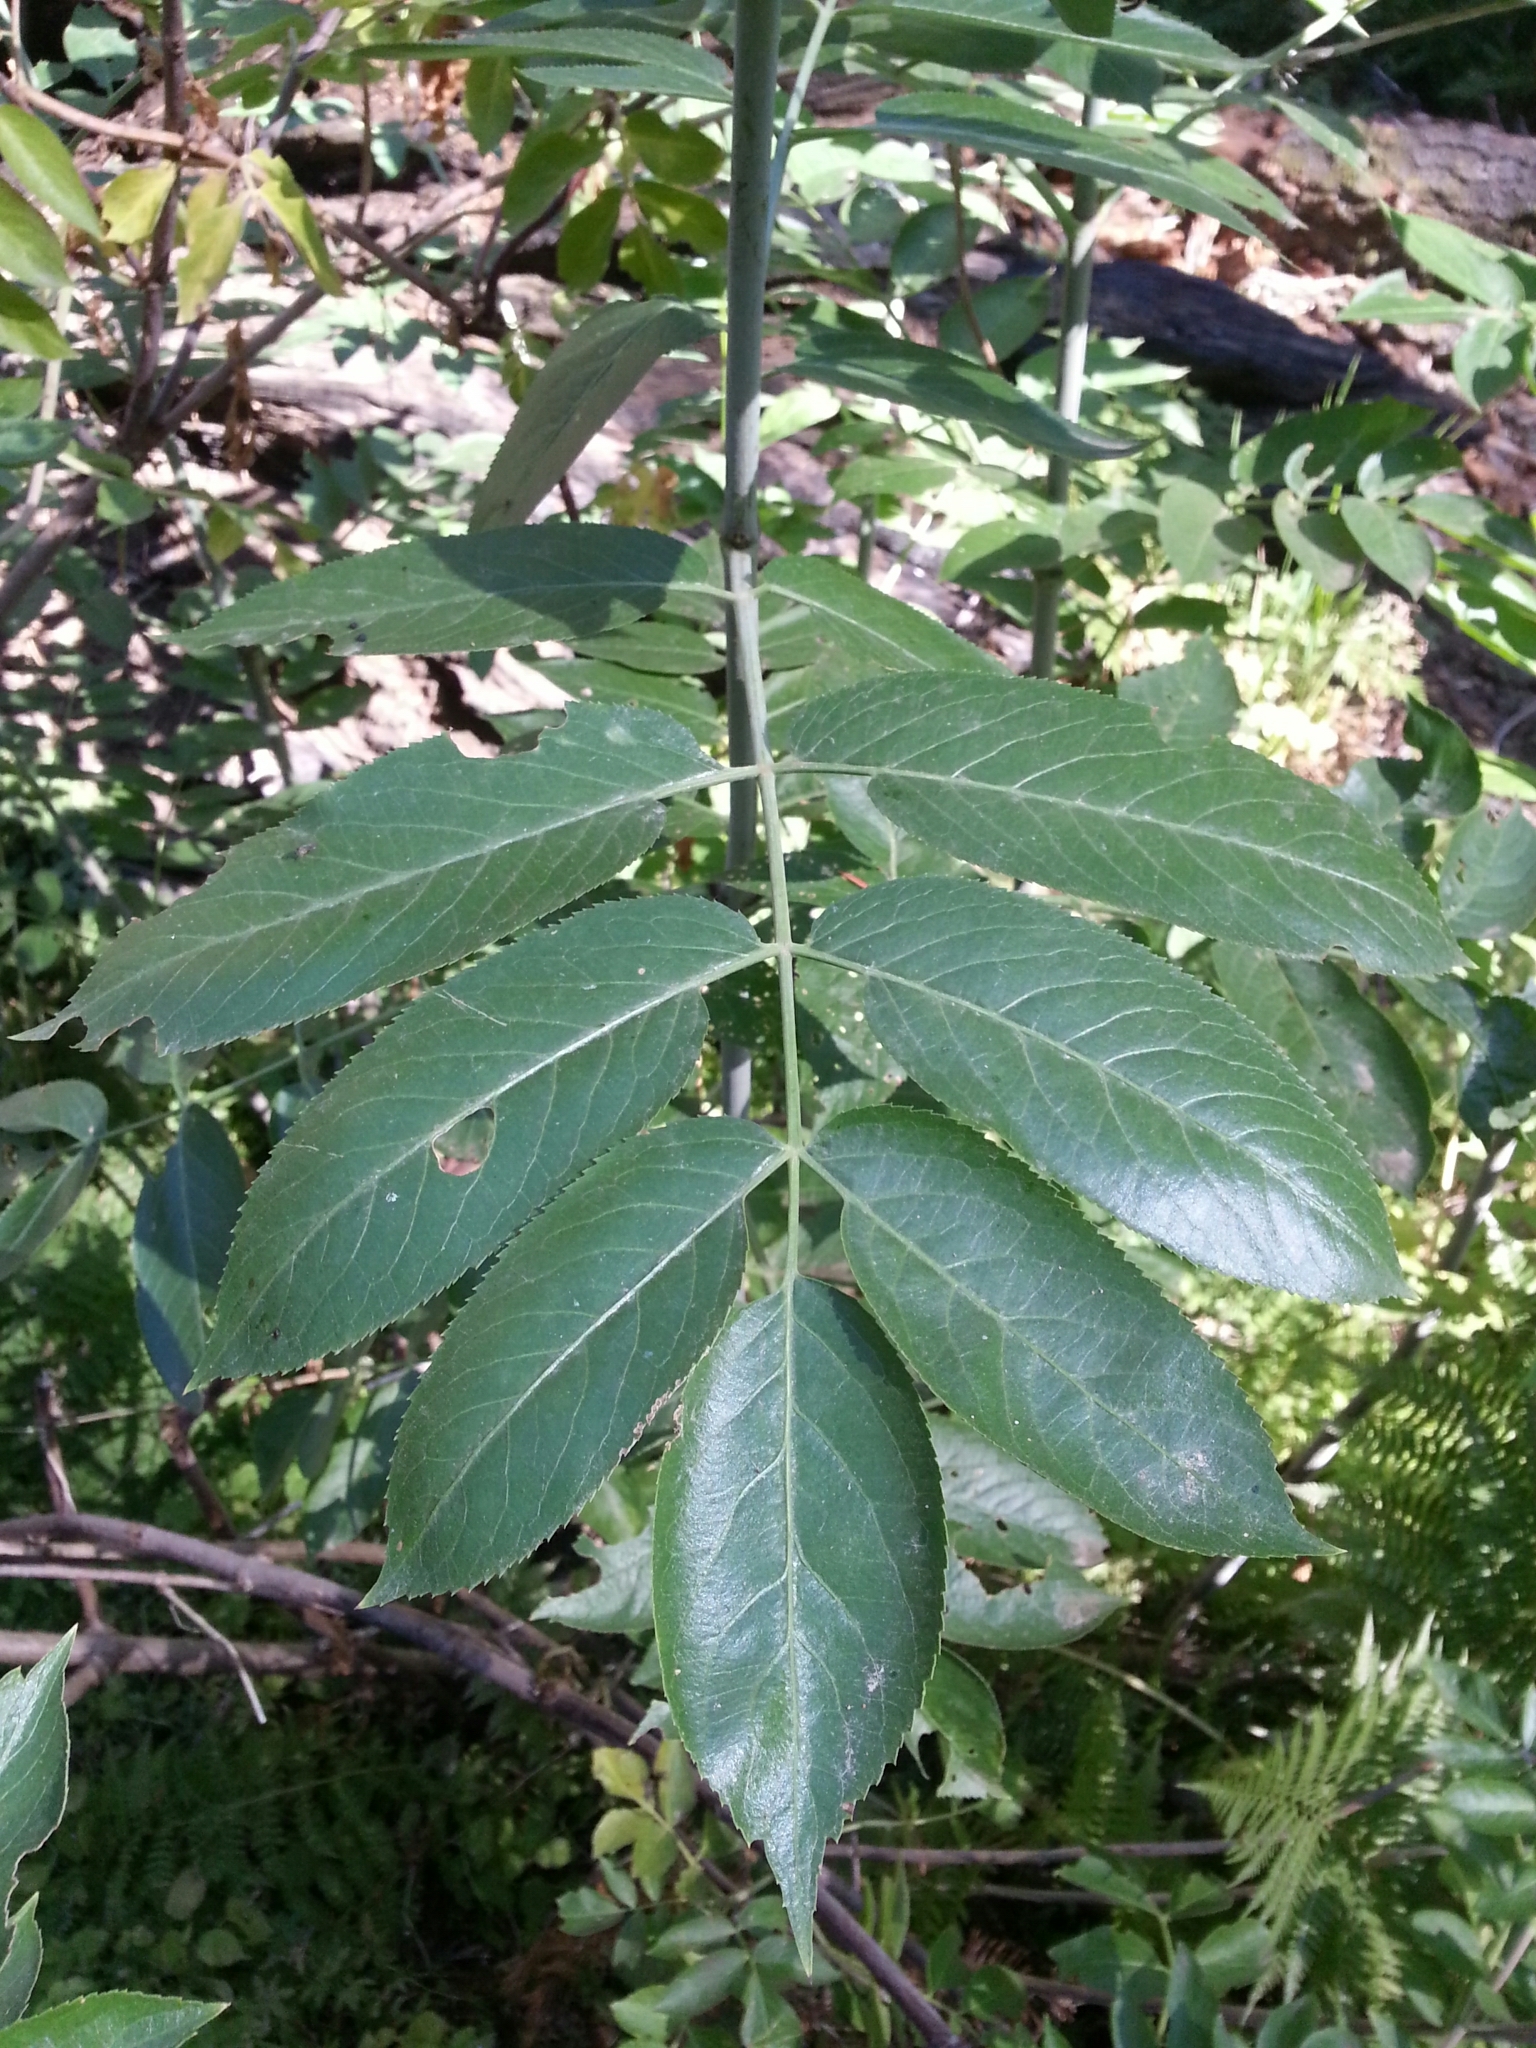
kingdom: Plantae
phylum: Tracheophyta
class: Magnoliopsida
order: Dipsacales
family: Viburnaceae
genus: Sambucus
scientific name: Sambucus cerulea
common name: Blue elder
